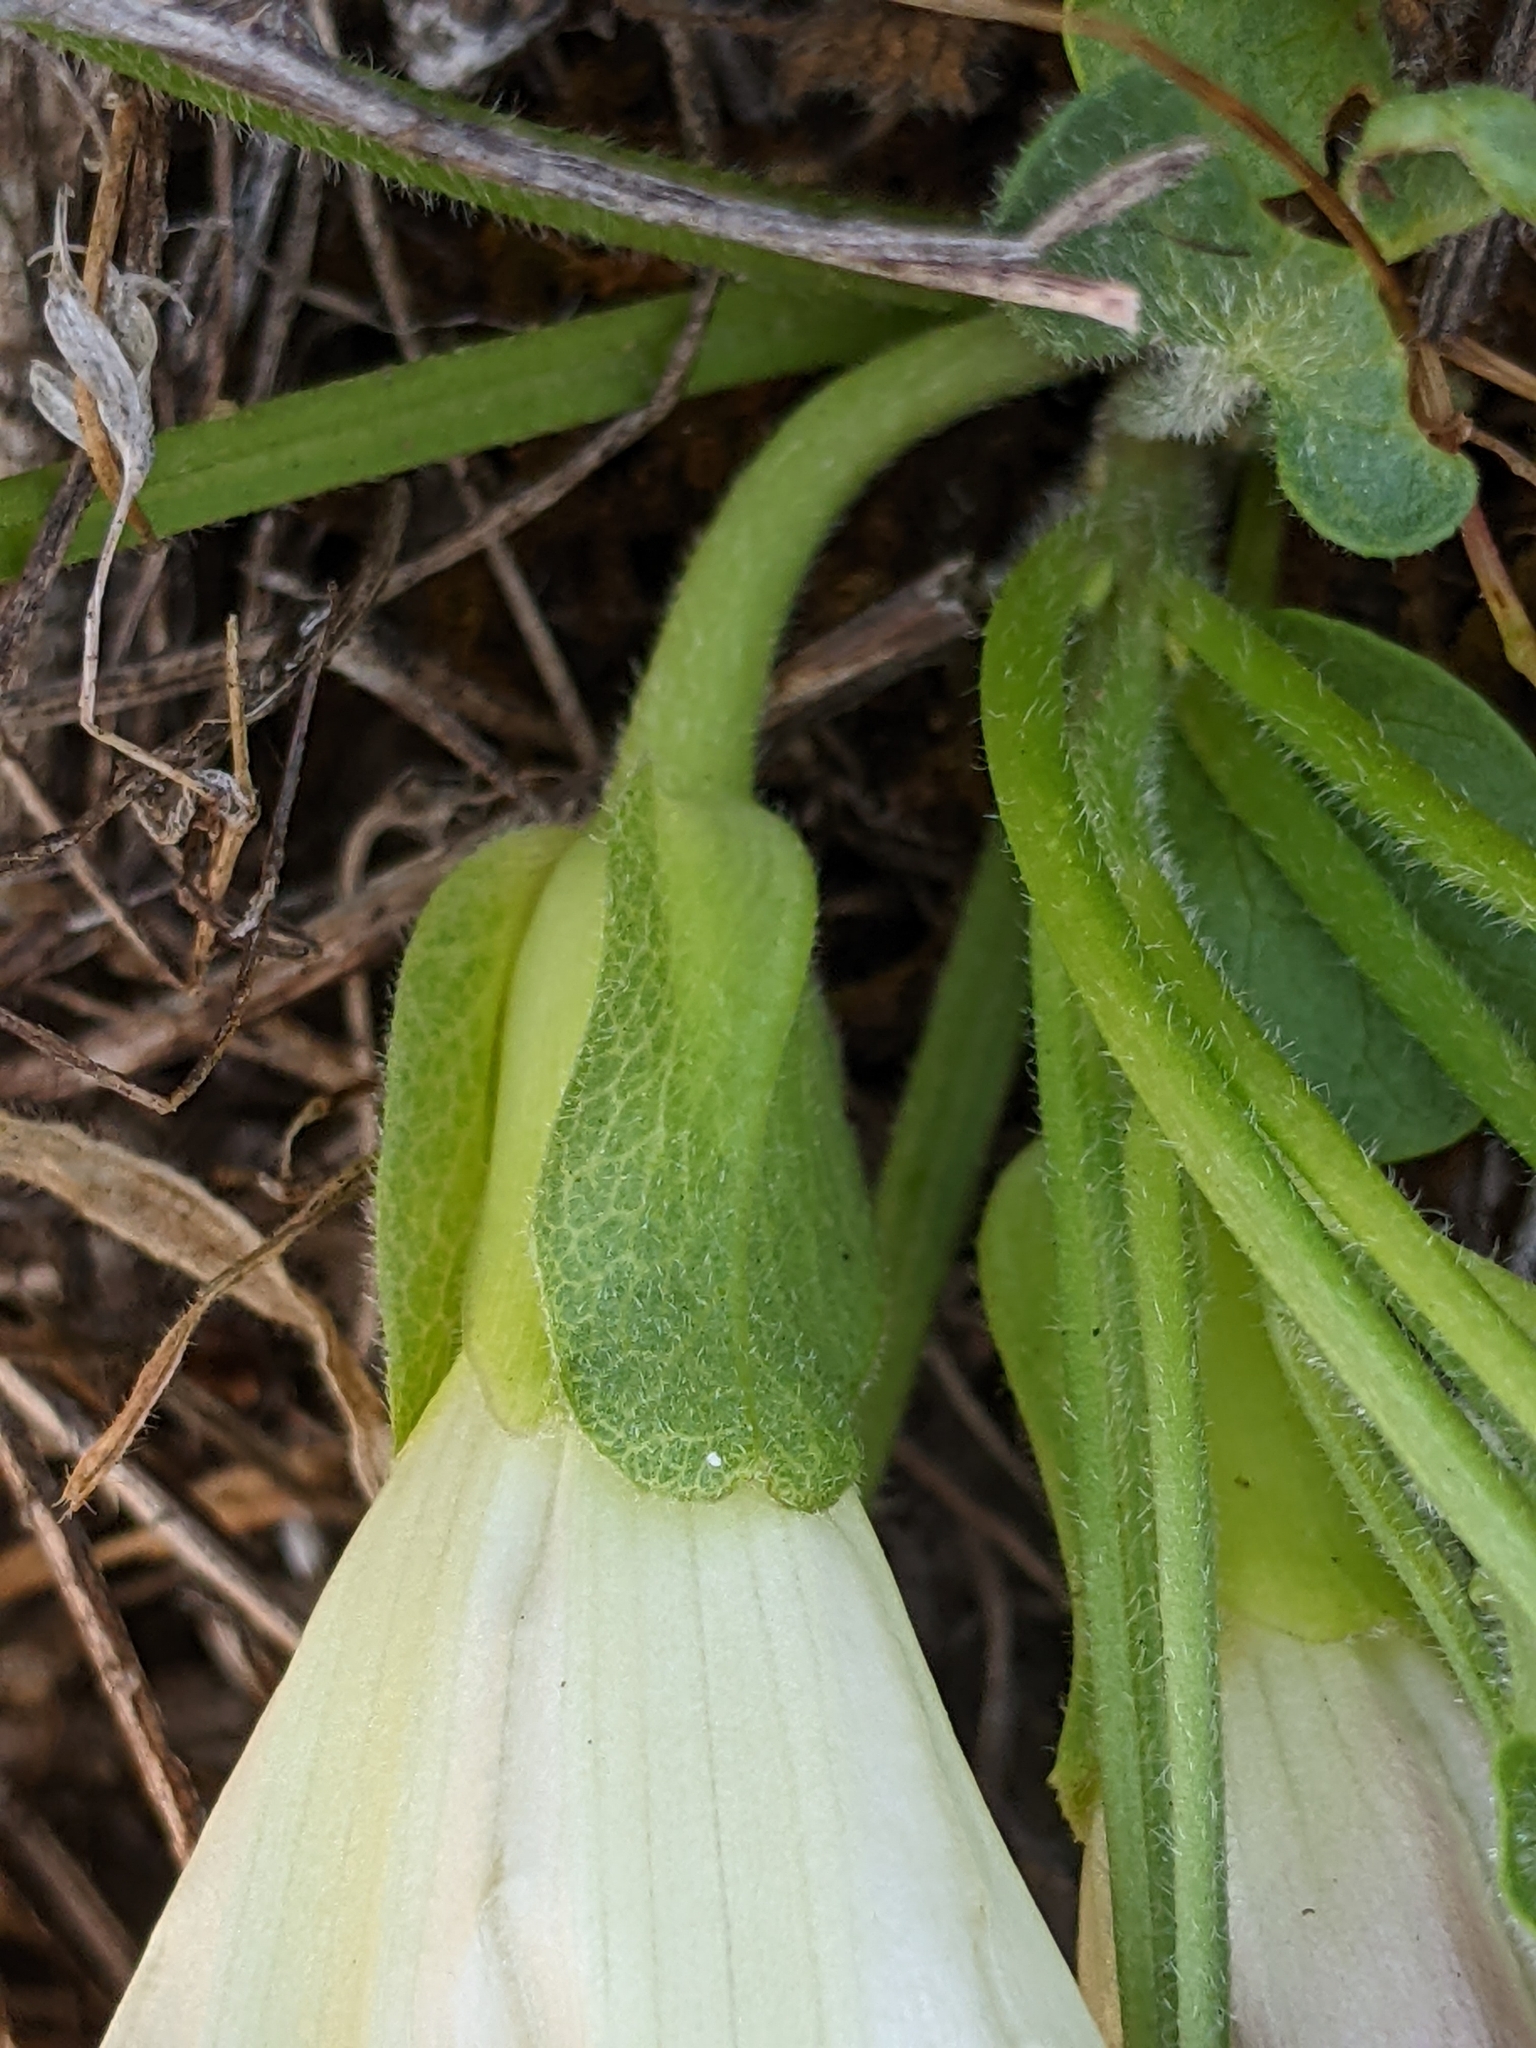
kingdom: Plantae
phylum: Tracheophyta
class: Magnoliopsida
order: Solanales
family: Convolvulaceae
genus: Calystegia
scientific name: Calystegia subacaulis
